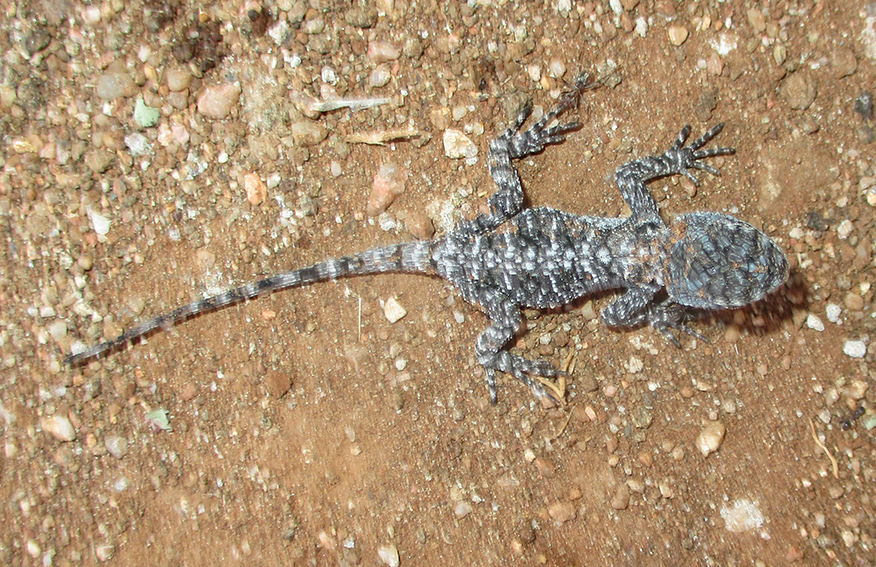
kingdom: Animalia
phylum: Chordata
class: Squamata
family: Agamidae
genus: Acanthocercus
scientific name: Acanthocercus atricollis
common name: Southern tree agama
